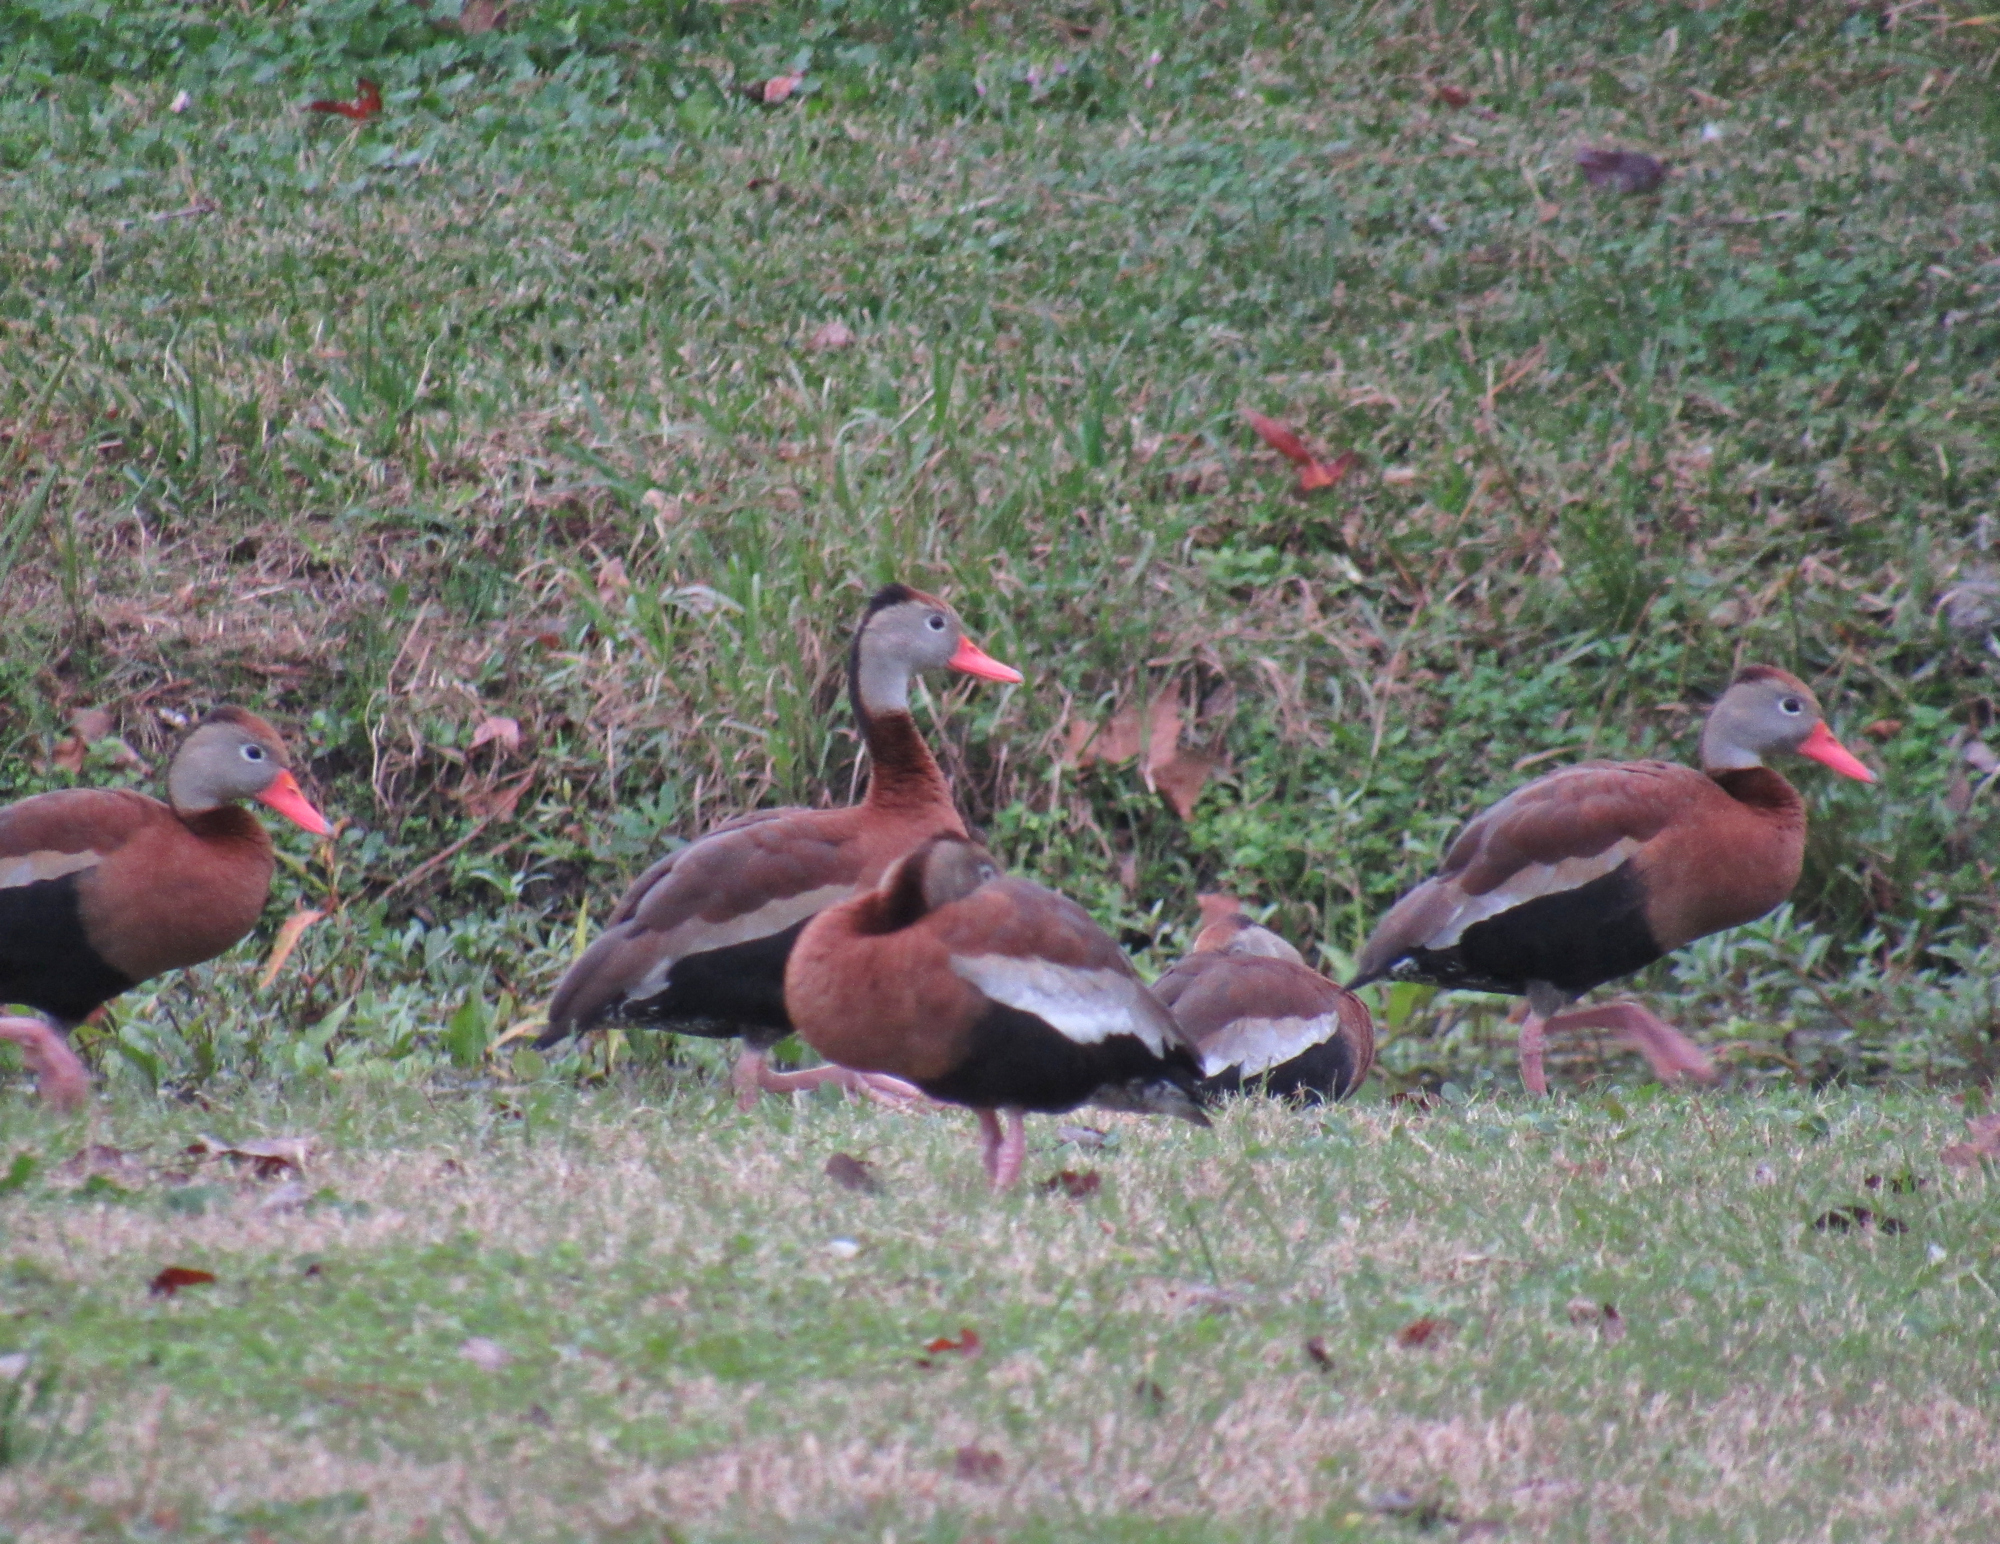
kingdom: Animalia
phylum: Chordata
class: Aves
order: Anseriformes
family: Anatidae
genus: Dendrocygna
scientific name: Dendrocygna autumnalis
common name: Black-bellied whistling duck
